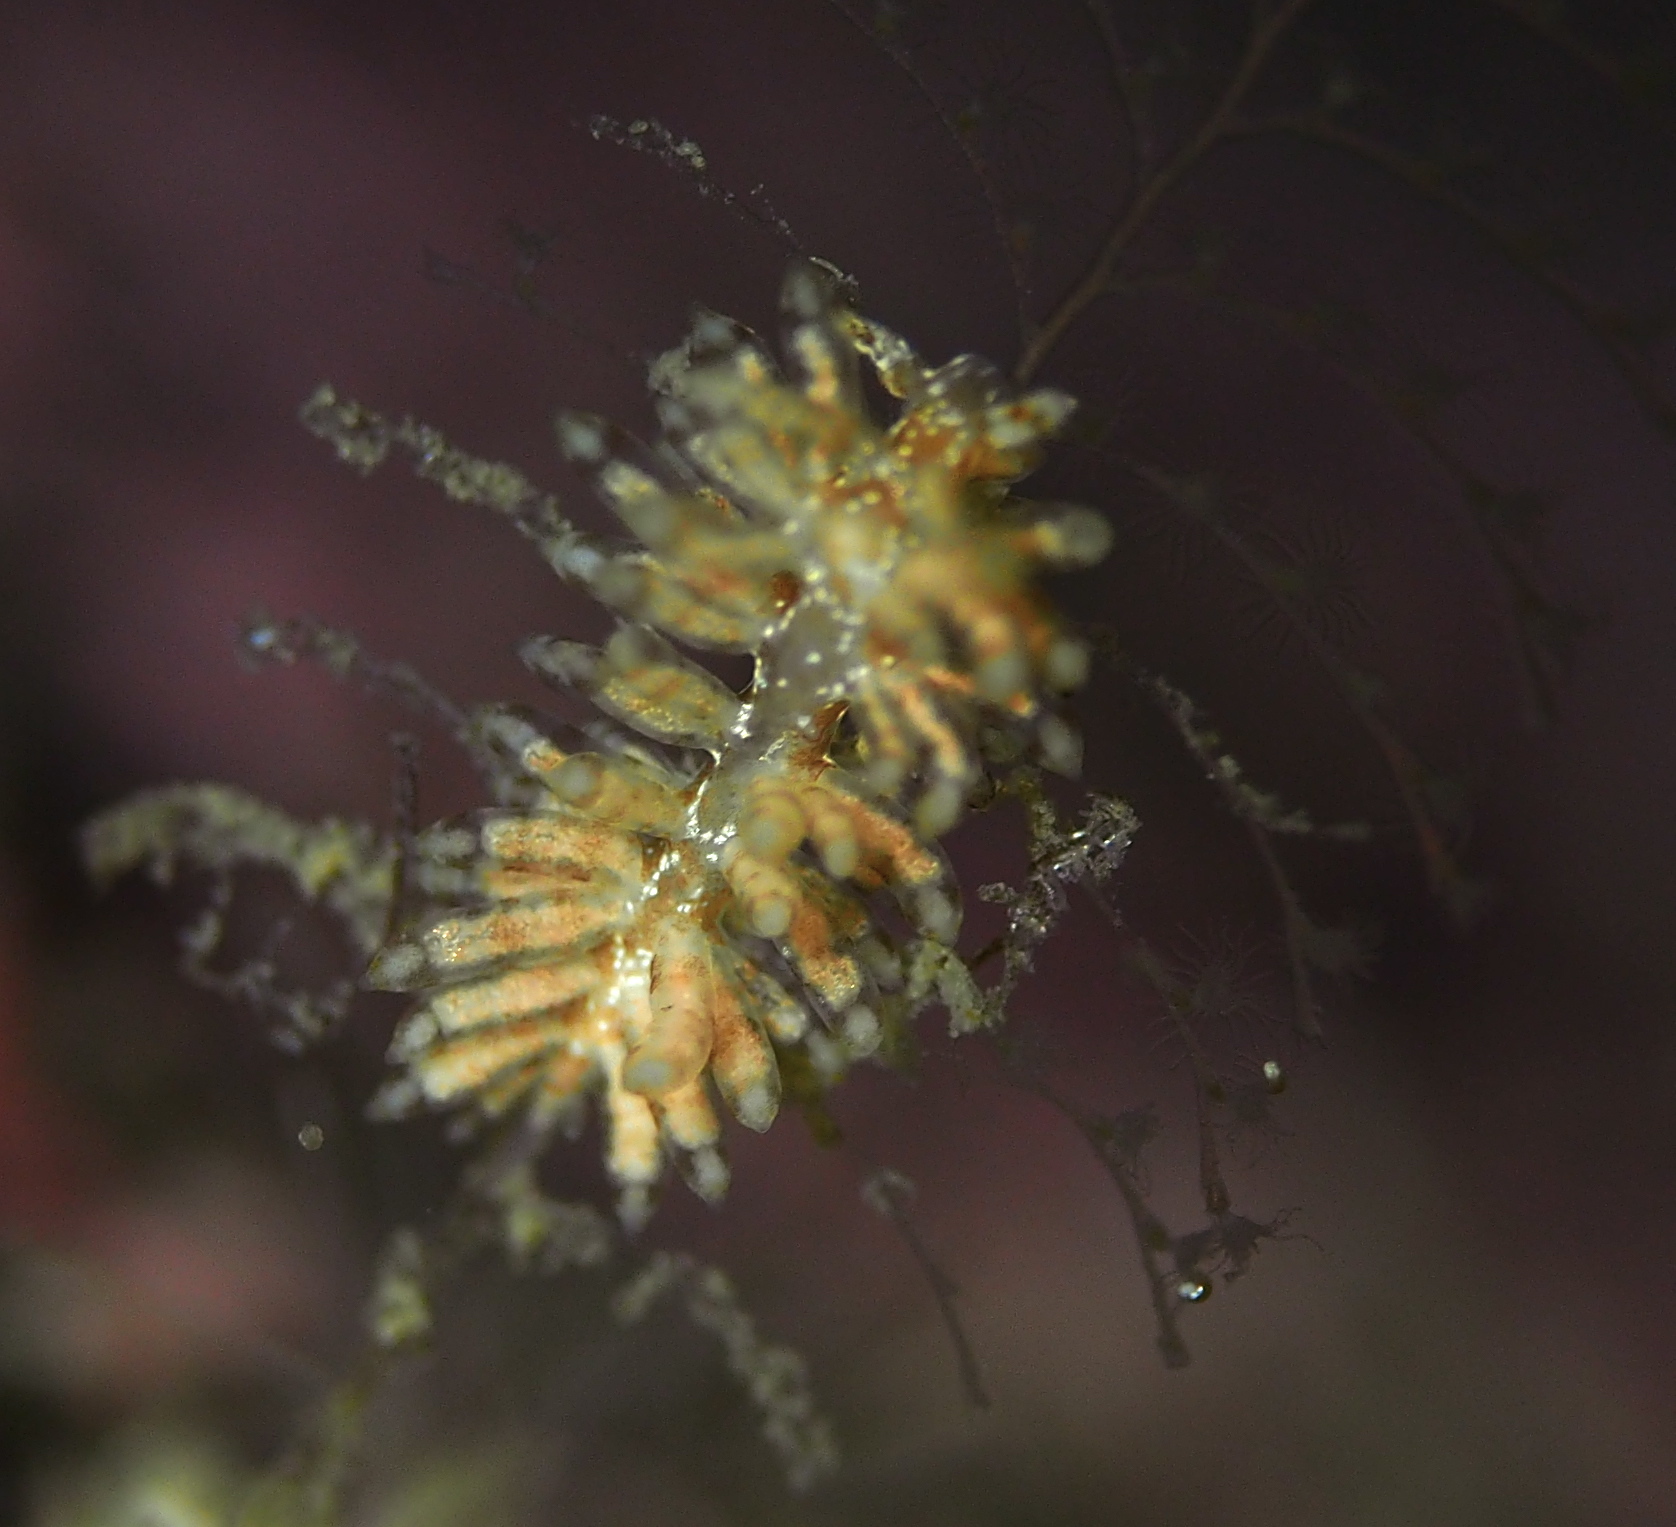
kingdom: Animalia
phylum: Mollusca
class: Gastropoda
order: Nudibranchia
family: Eubranchidae
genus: Eubranchus
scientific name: Eubranchus vittatus
